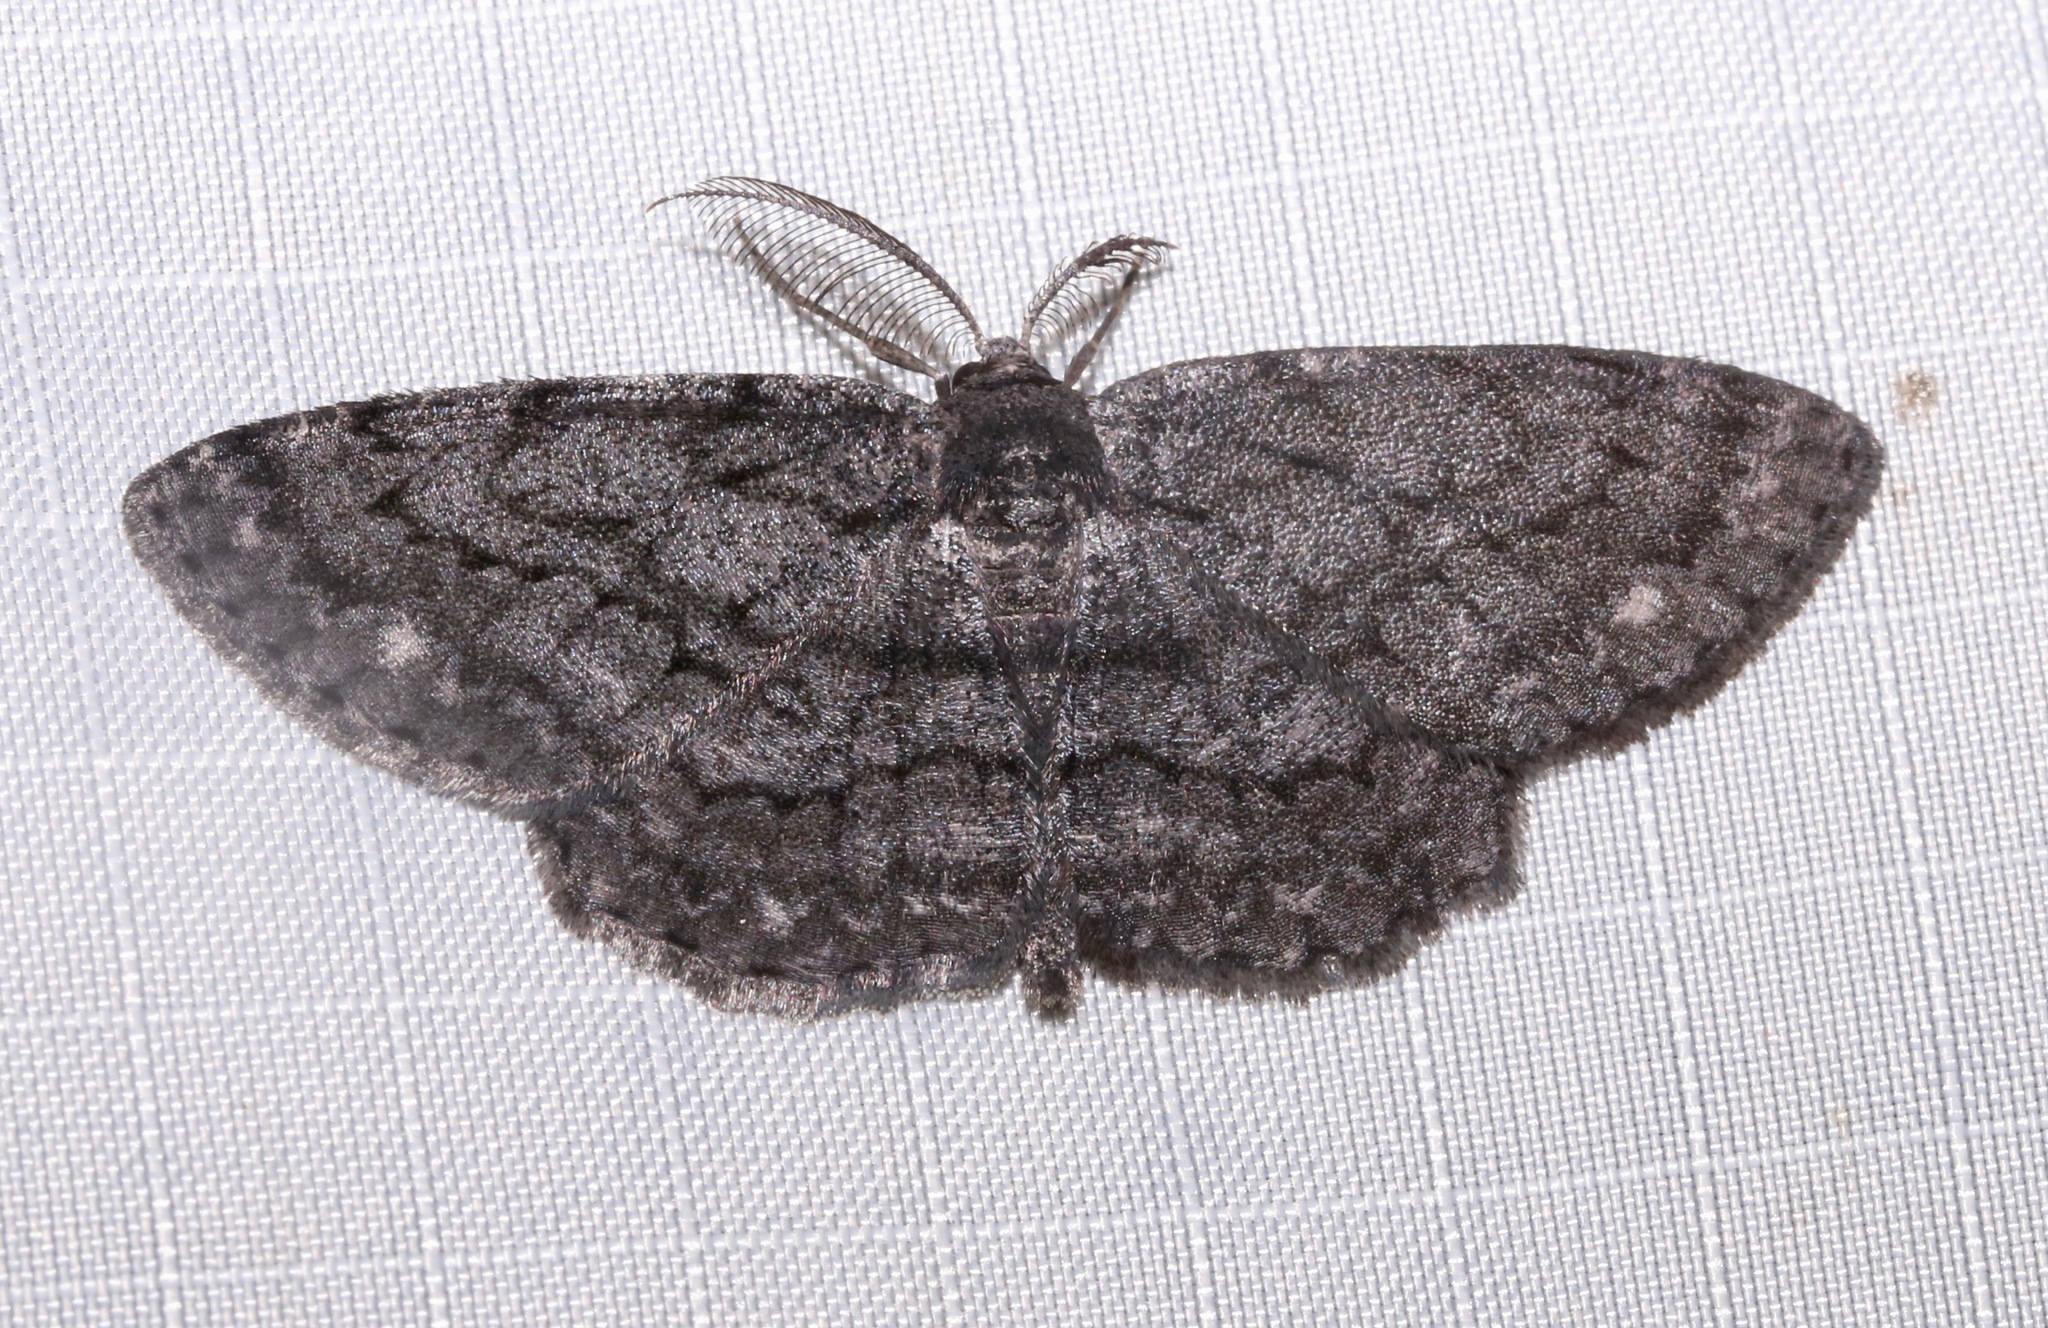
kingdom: Animalia
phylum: Arthropoda
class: Insecta
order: Lepidoptera
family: Geometridae
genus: Hypomecis
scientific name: Hypomecis buchholzaria
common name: Buchholz's gray moth
